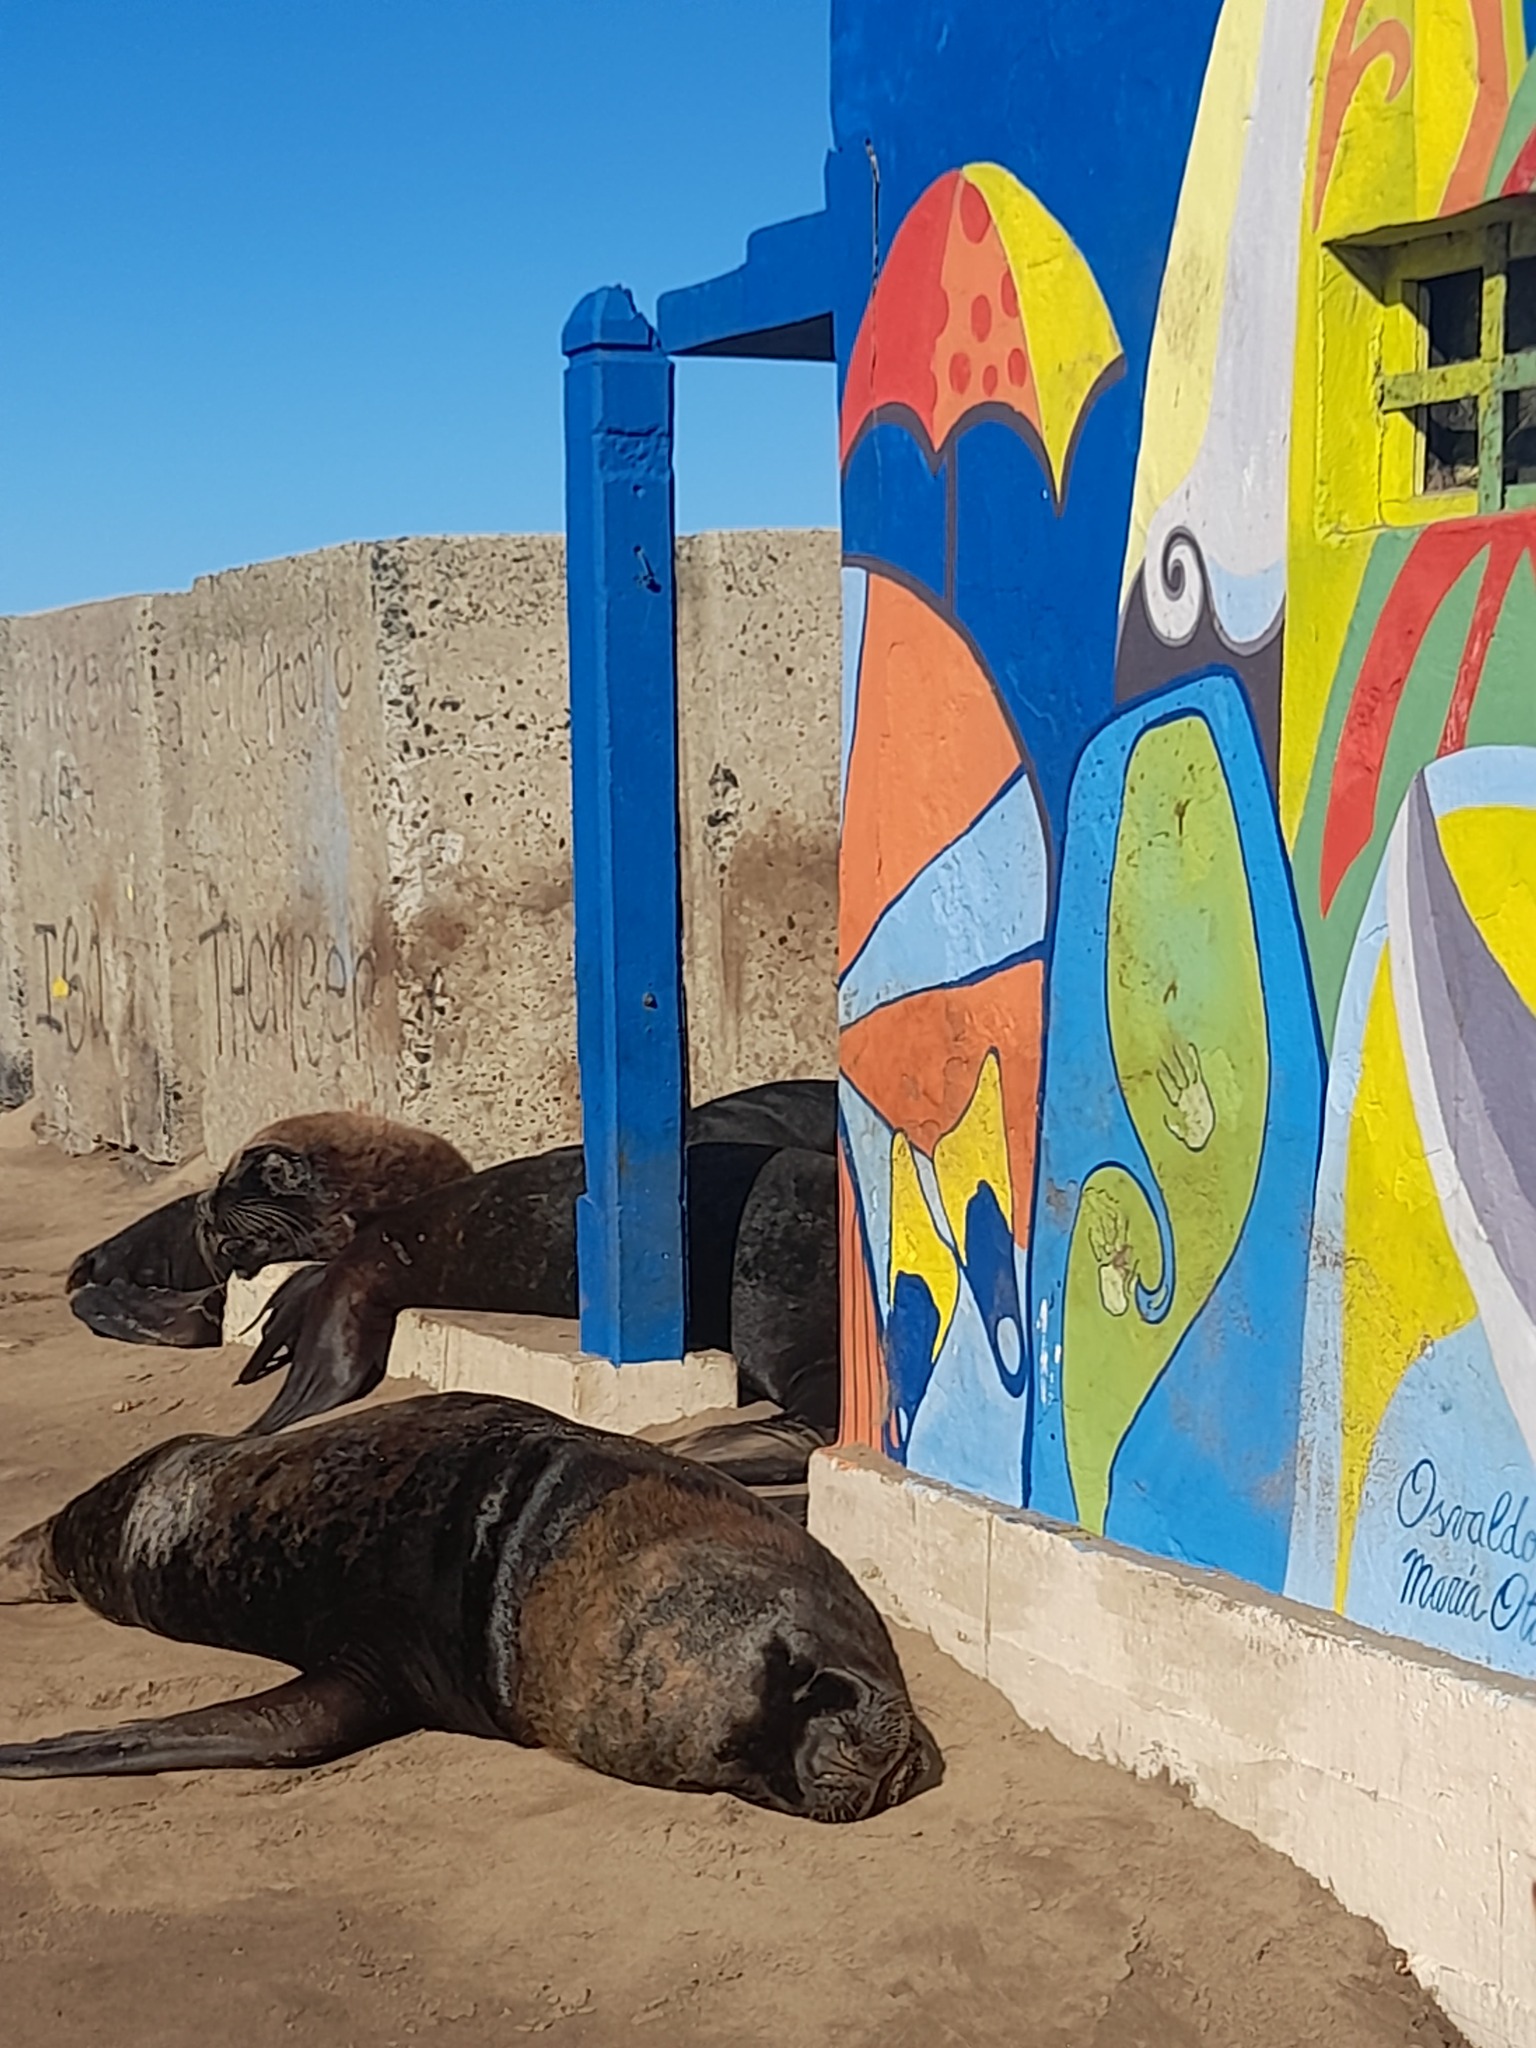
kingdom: Animalia
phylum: Chordata
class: Mammalia
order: Carnivora
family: Otariidae
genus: Otaria
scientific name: Otaria byronia
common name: South american sea lion
